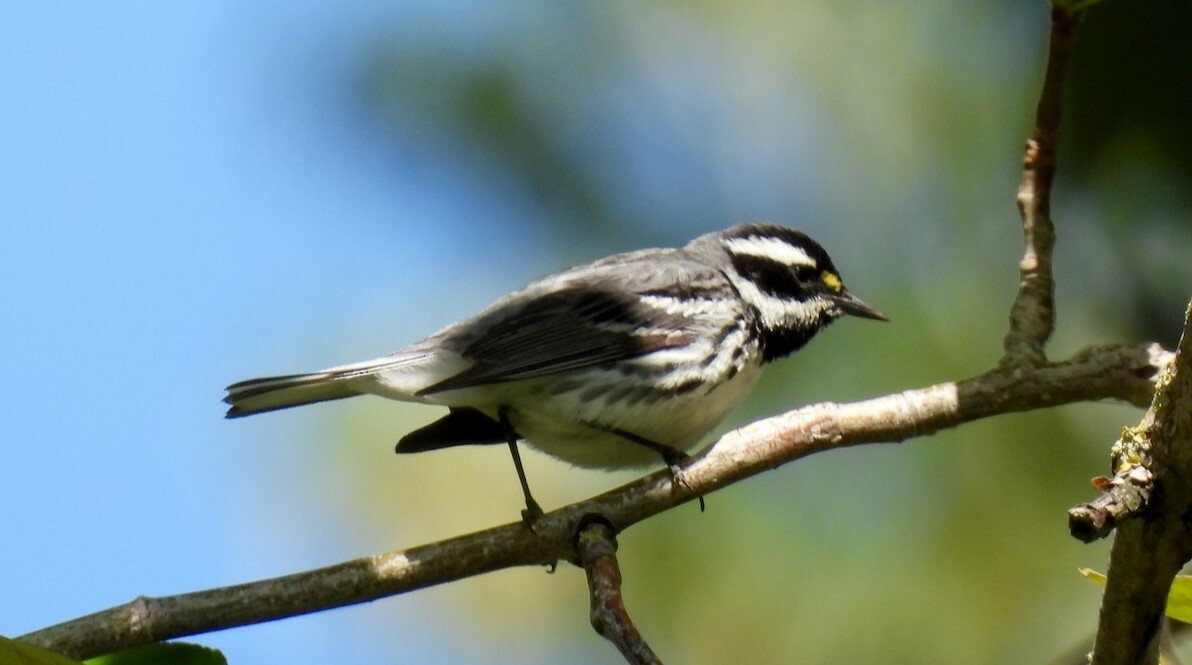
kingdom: Animalia
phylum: Chordata
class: Aves
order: Passeriformes
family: Parulidae
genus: Setophaga
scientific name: Setophaga nigrescens
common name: Black-throated gray warbler
